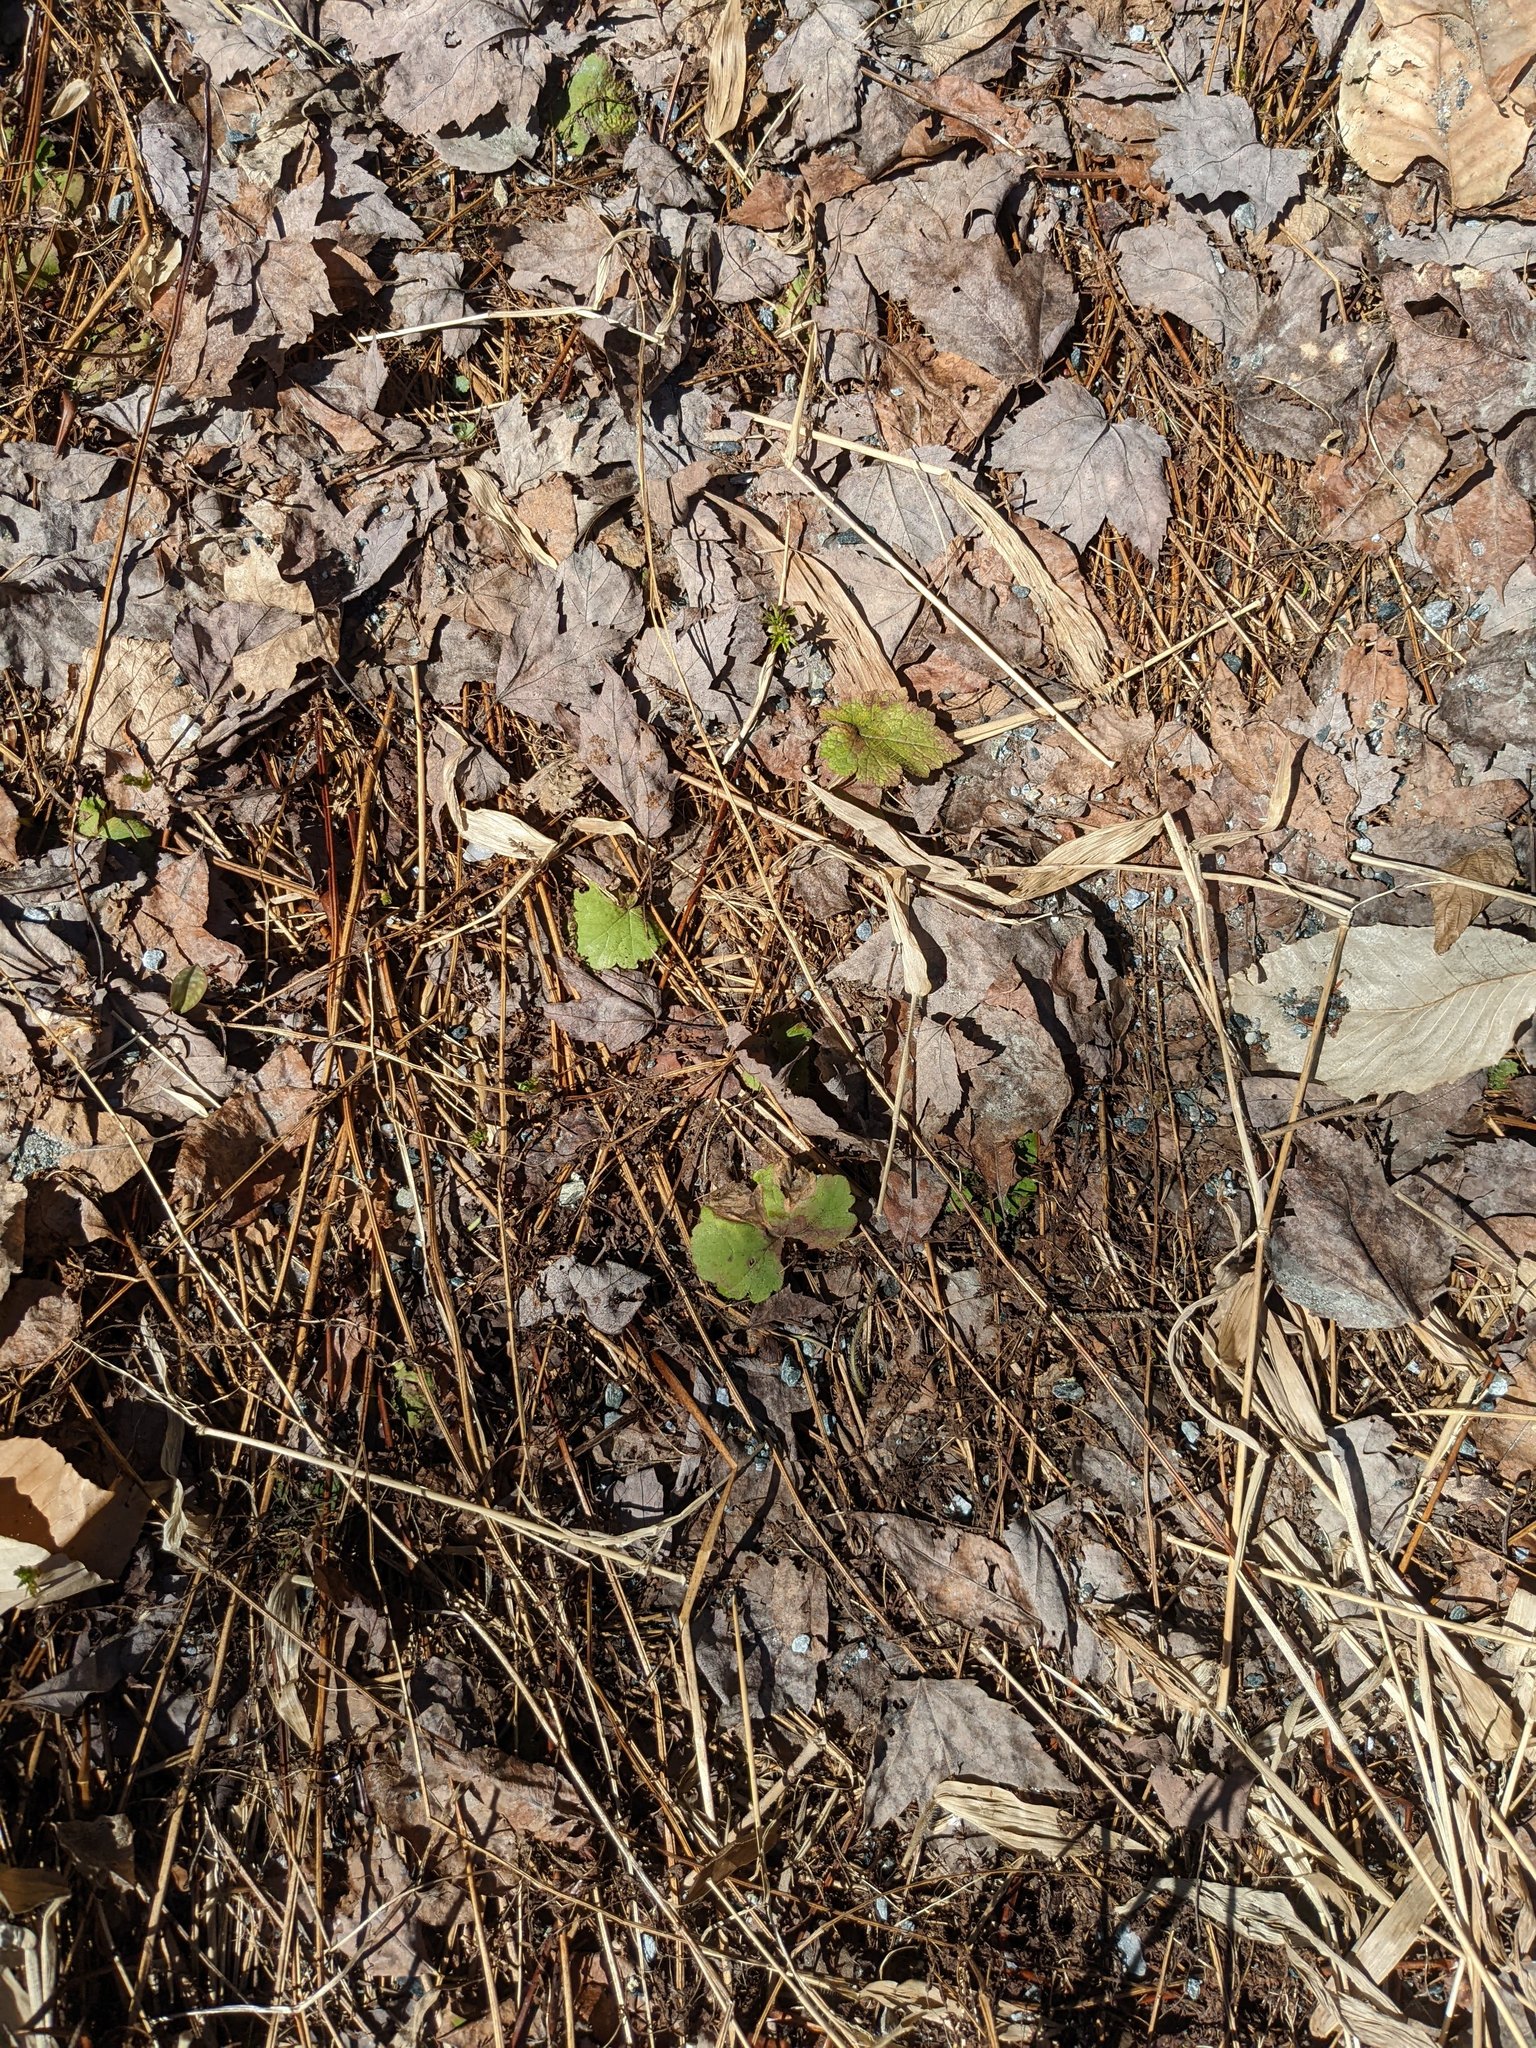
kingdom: Plantae
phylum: Tracheophyta
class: Magnoliopsida
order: Saxifragales
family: Saxifragaceae
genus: Tiarella
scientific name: Tiarella stolonifera
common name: Stoloniferous foamflower
